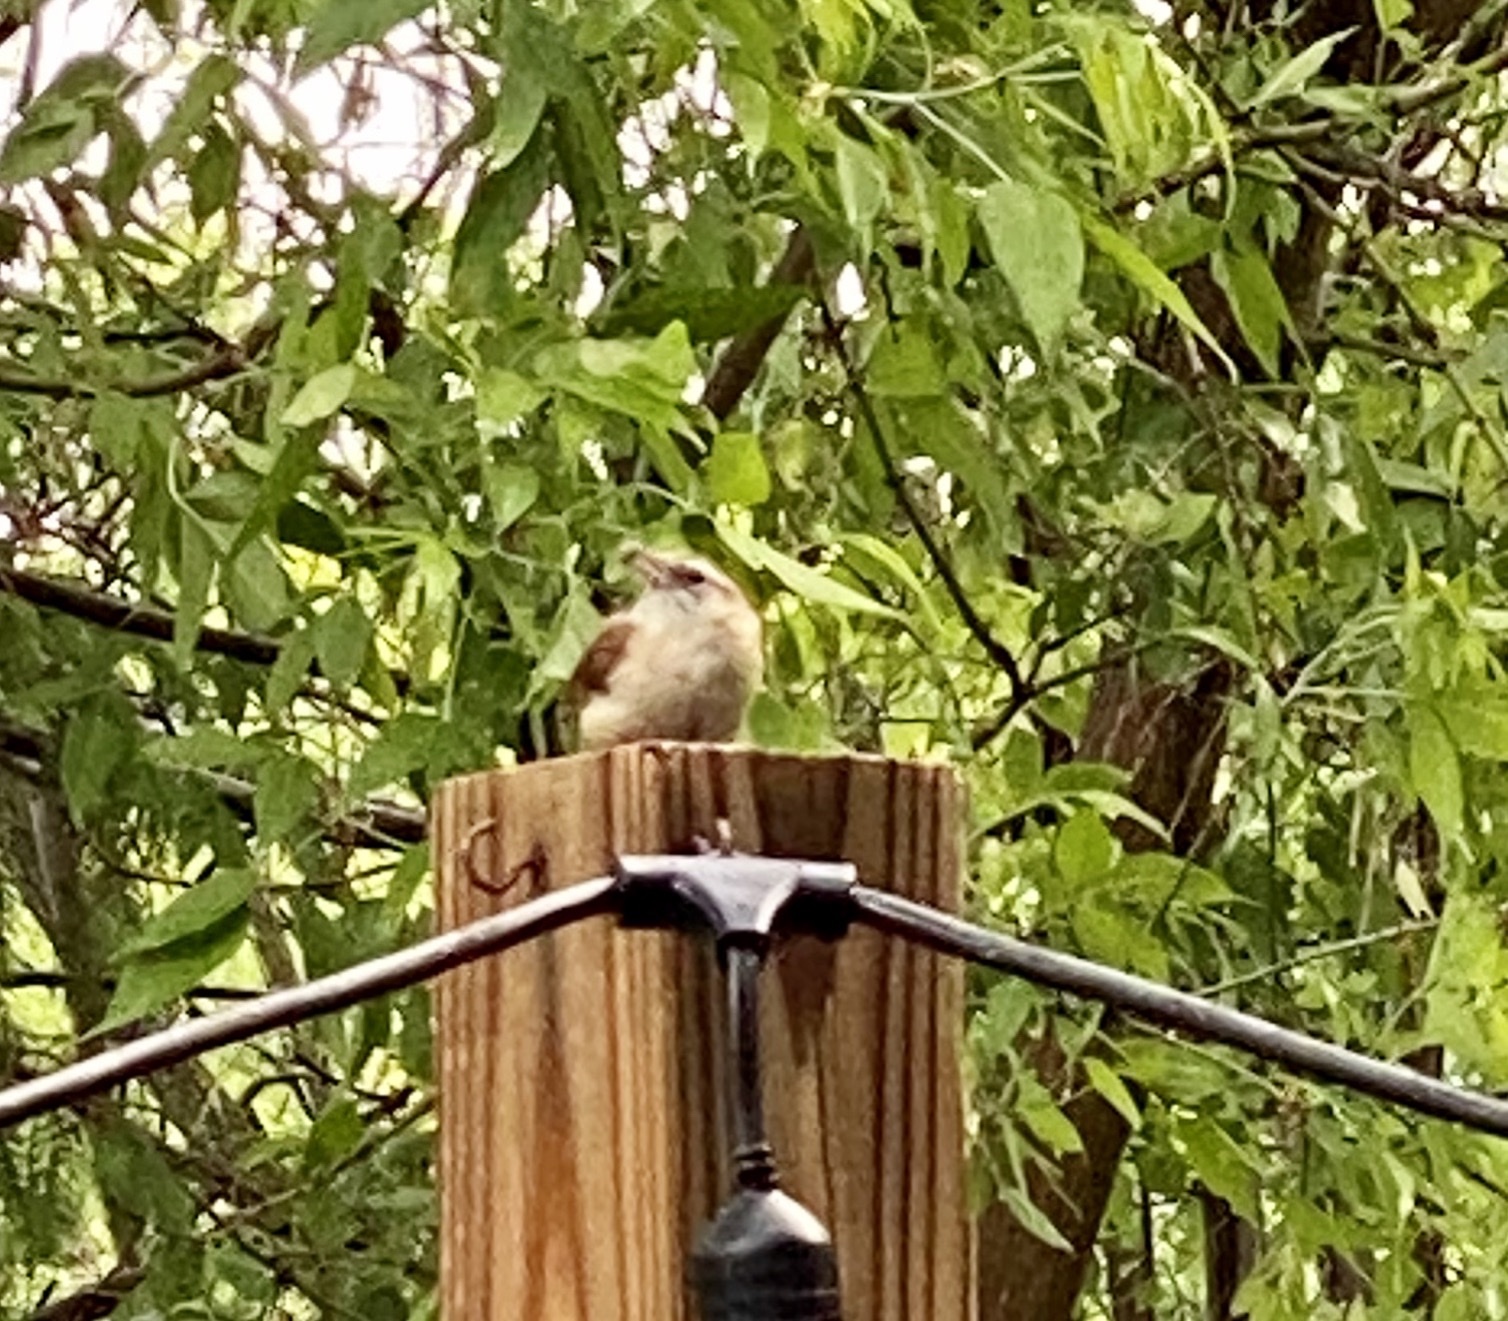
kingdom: Animalia
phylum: Chordata
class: Aves
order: Passeriformes
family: Troglodytidae
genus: Thryothorus
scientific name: Thryothorus ludovicianus
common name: Carolina wren
